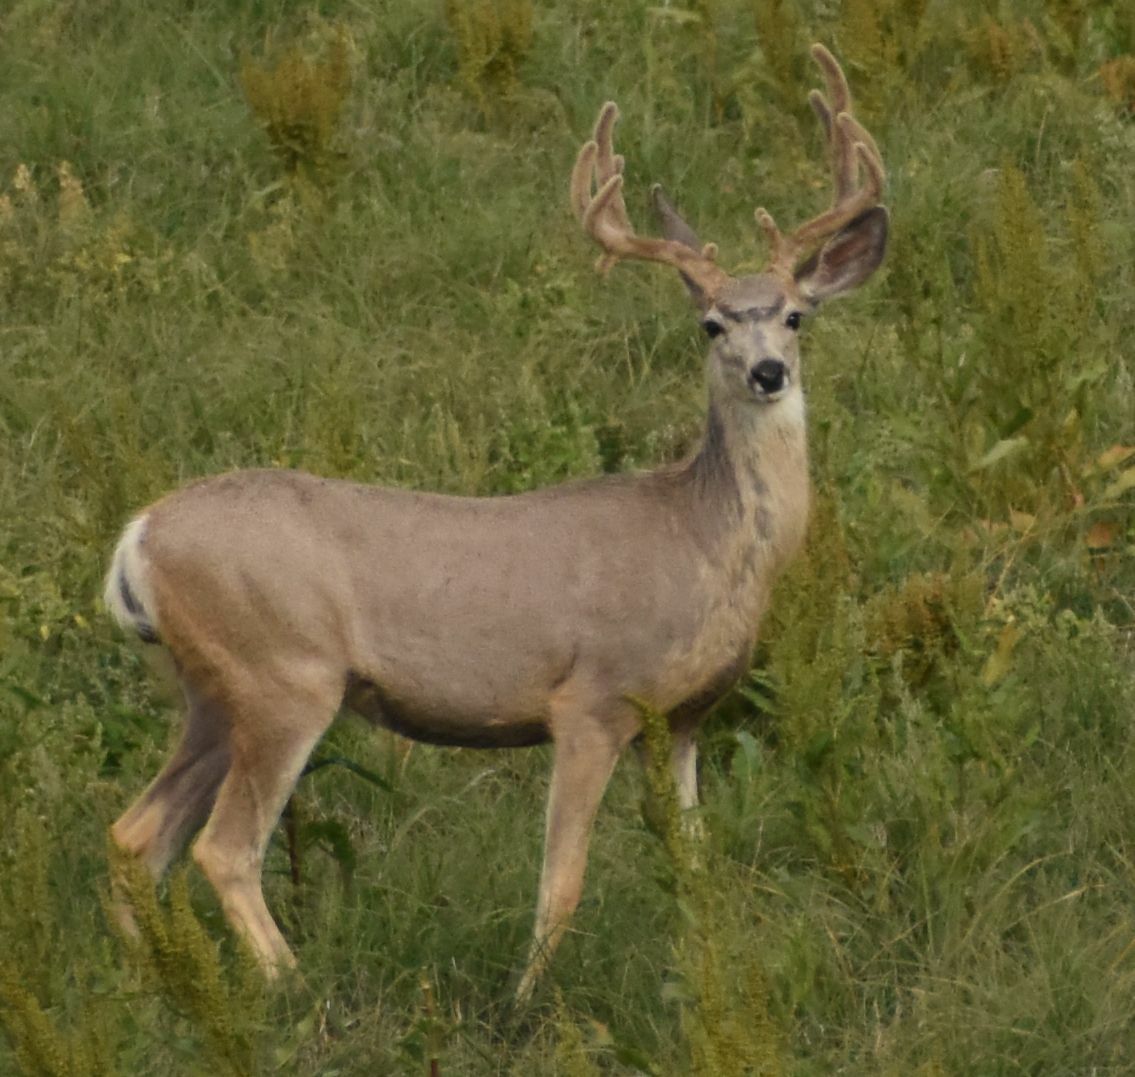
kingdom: Animalia
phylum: Chordata
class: Mammalia
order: Artiodactyla
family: Cervidae
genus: Odocoileus
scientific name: Odocoileus hemionus
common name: Mule deer
